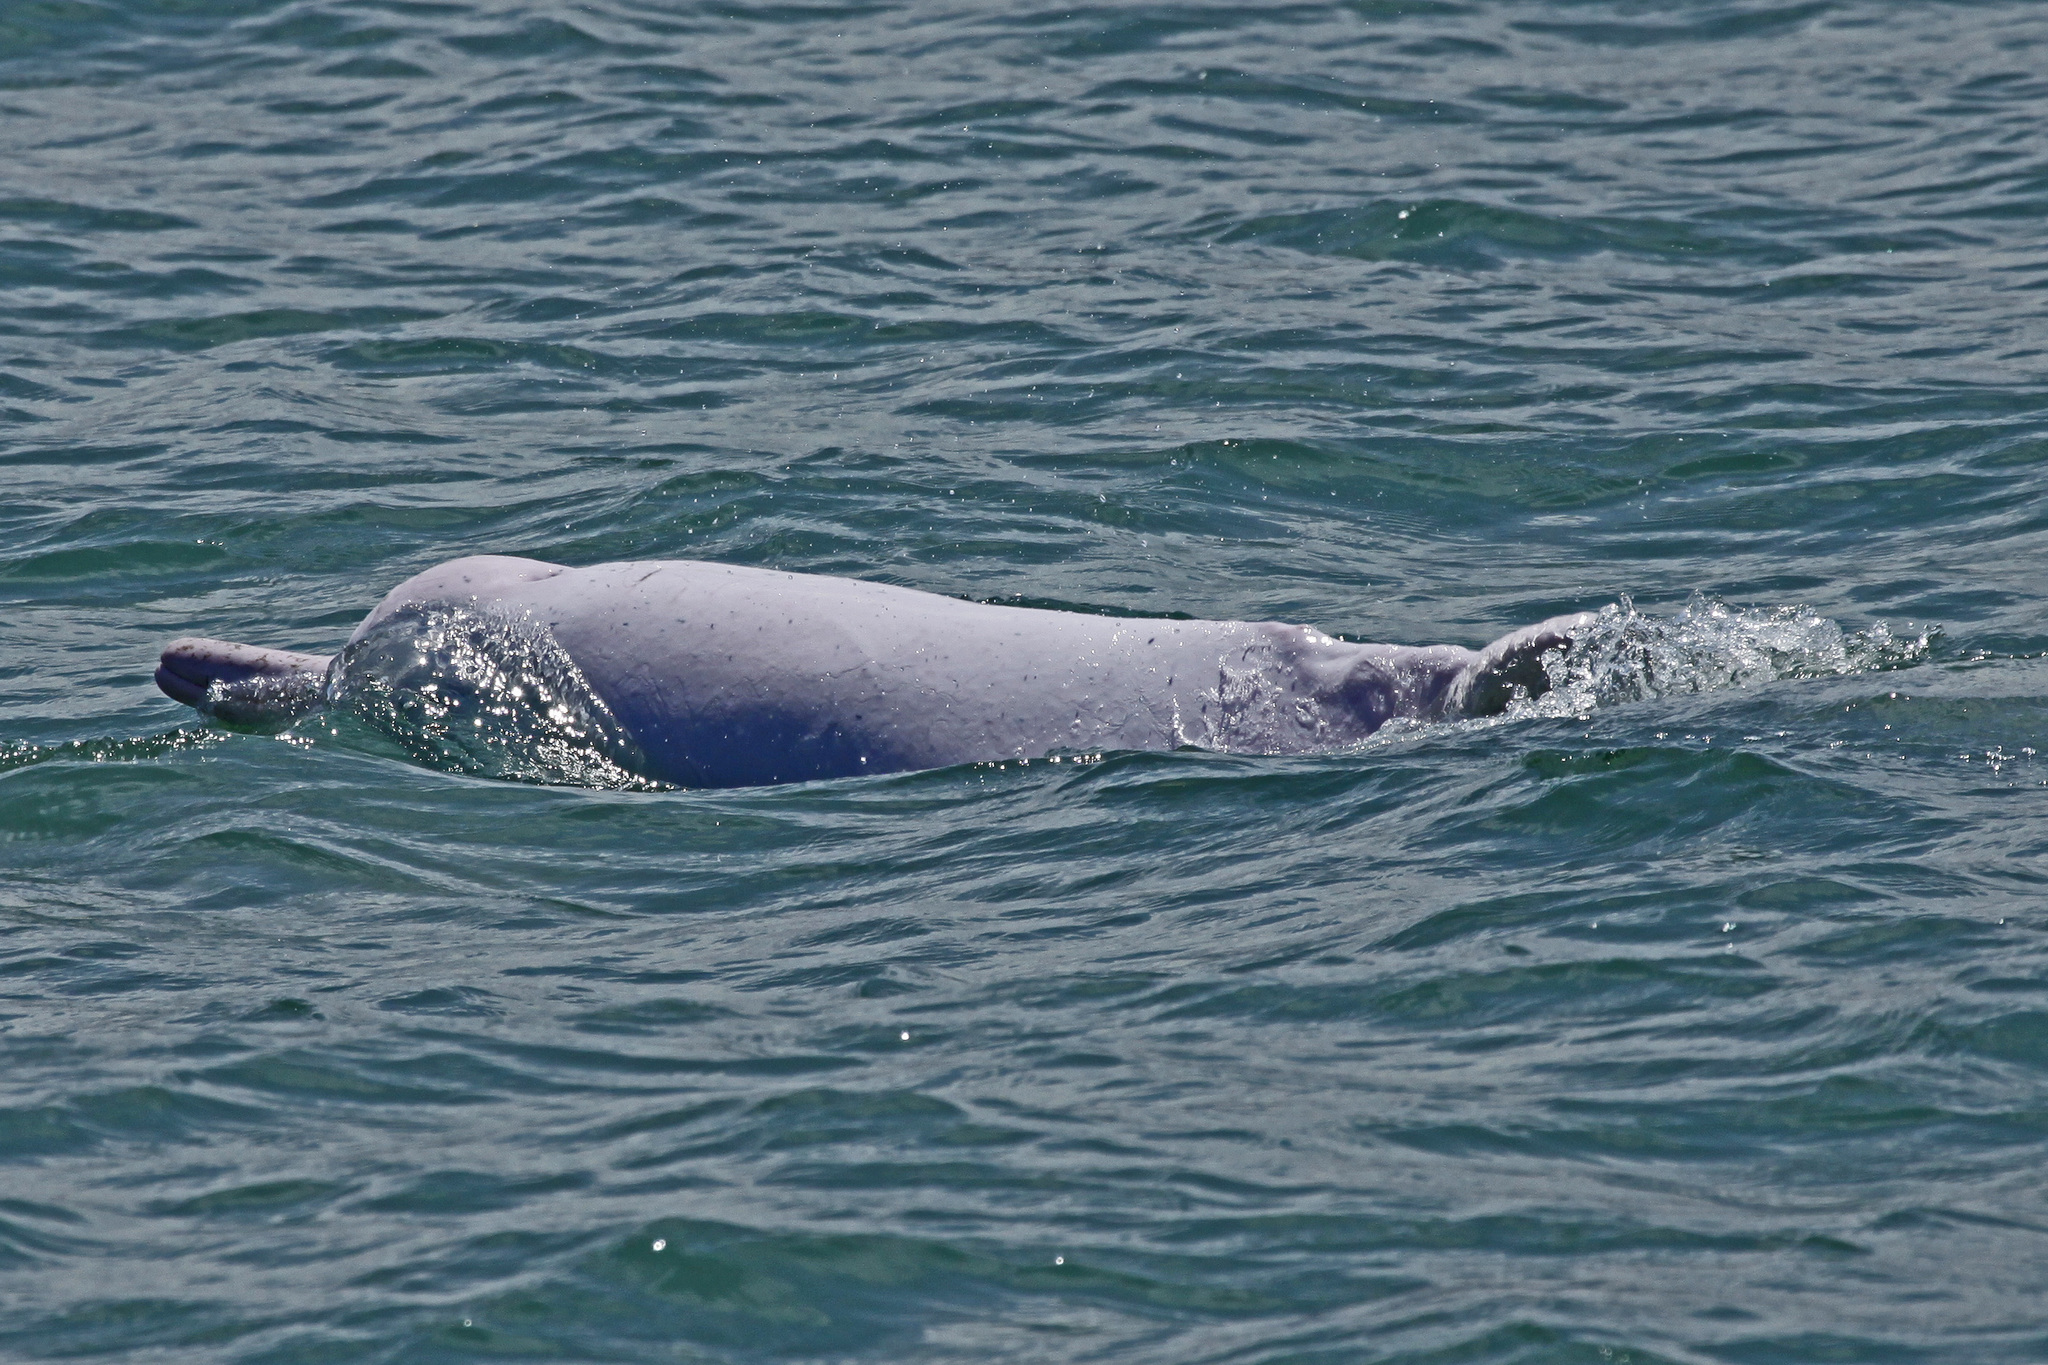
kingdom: Animalia
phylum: Chordata
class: Mammalia
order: Cetacea
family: Delphinidae
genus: Sousa
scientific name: Sousa chinensis
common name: Chinese white dolphin
